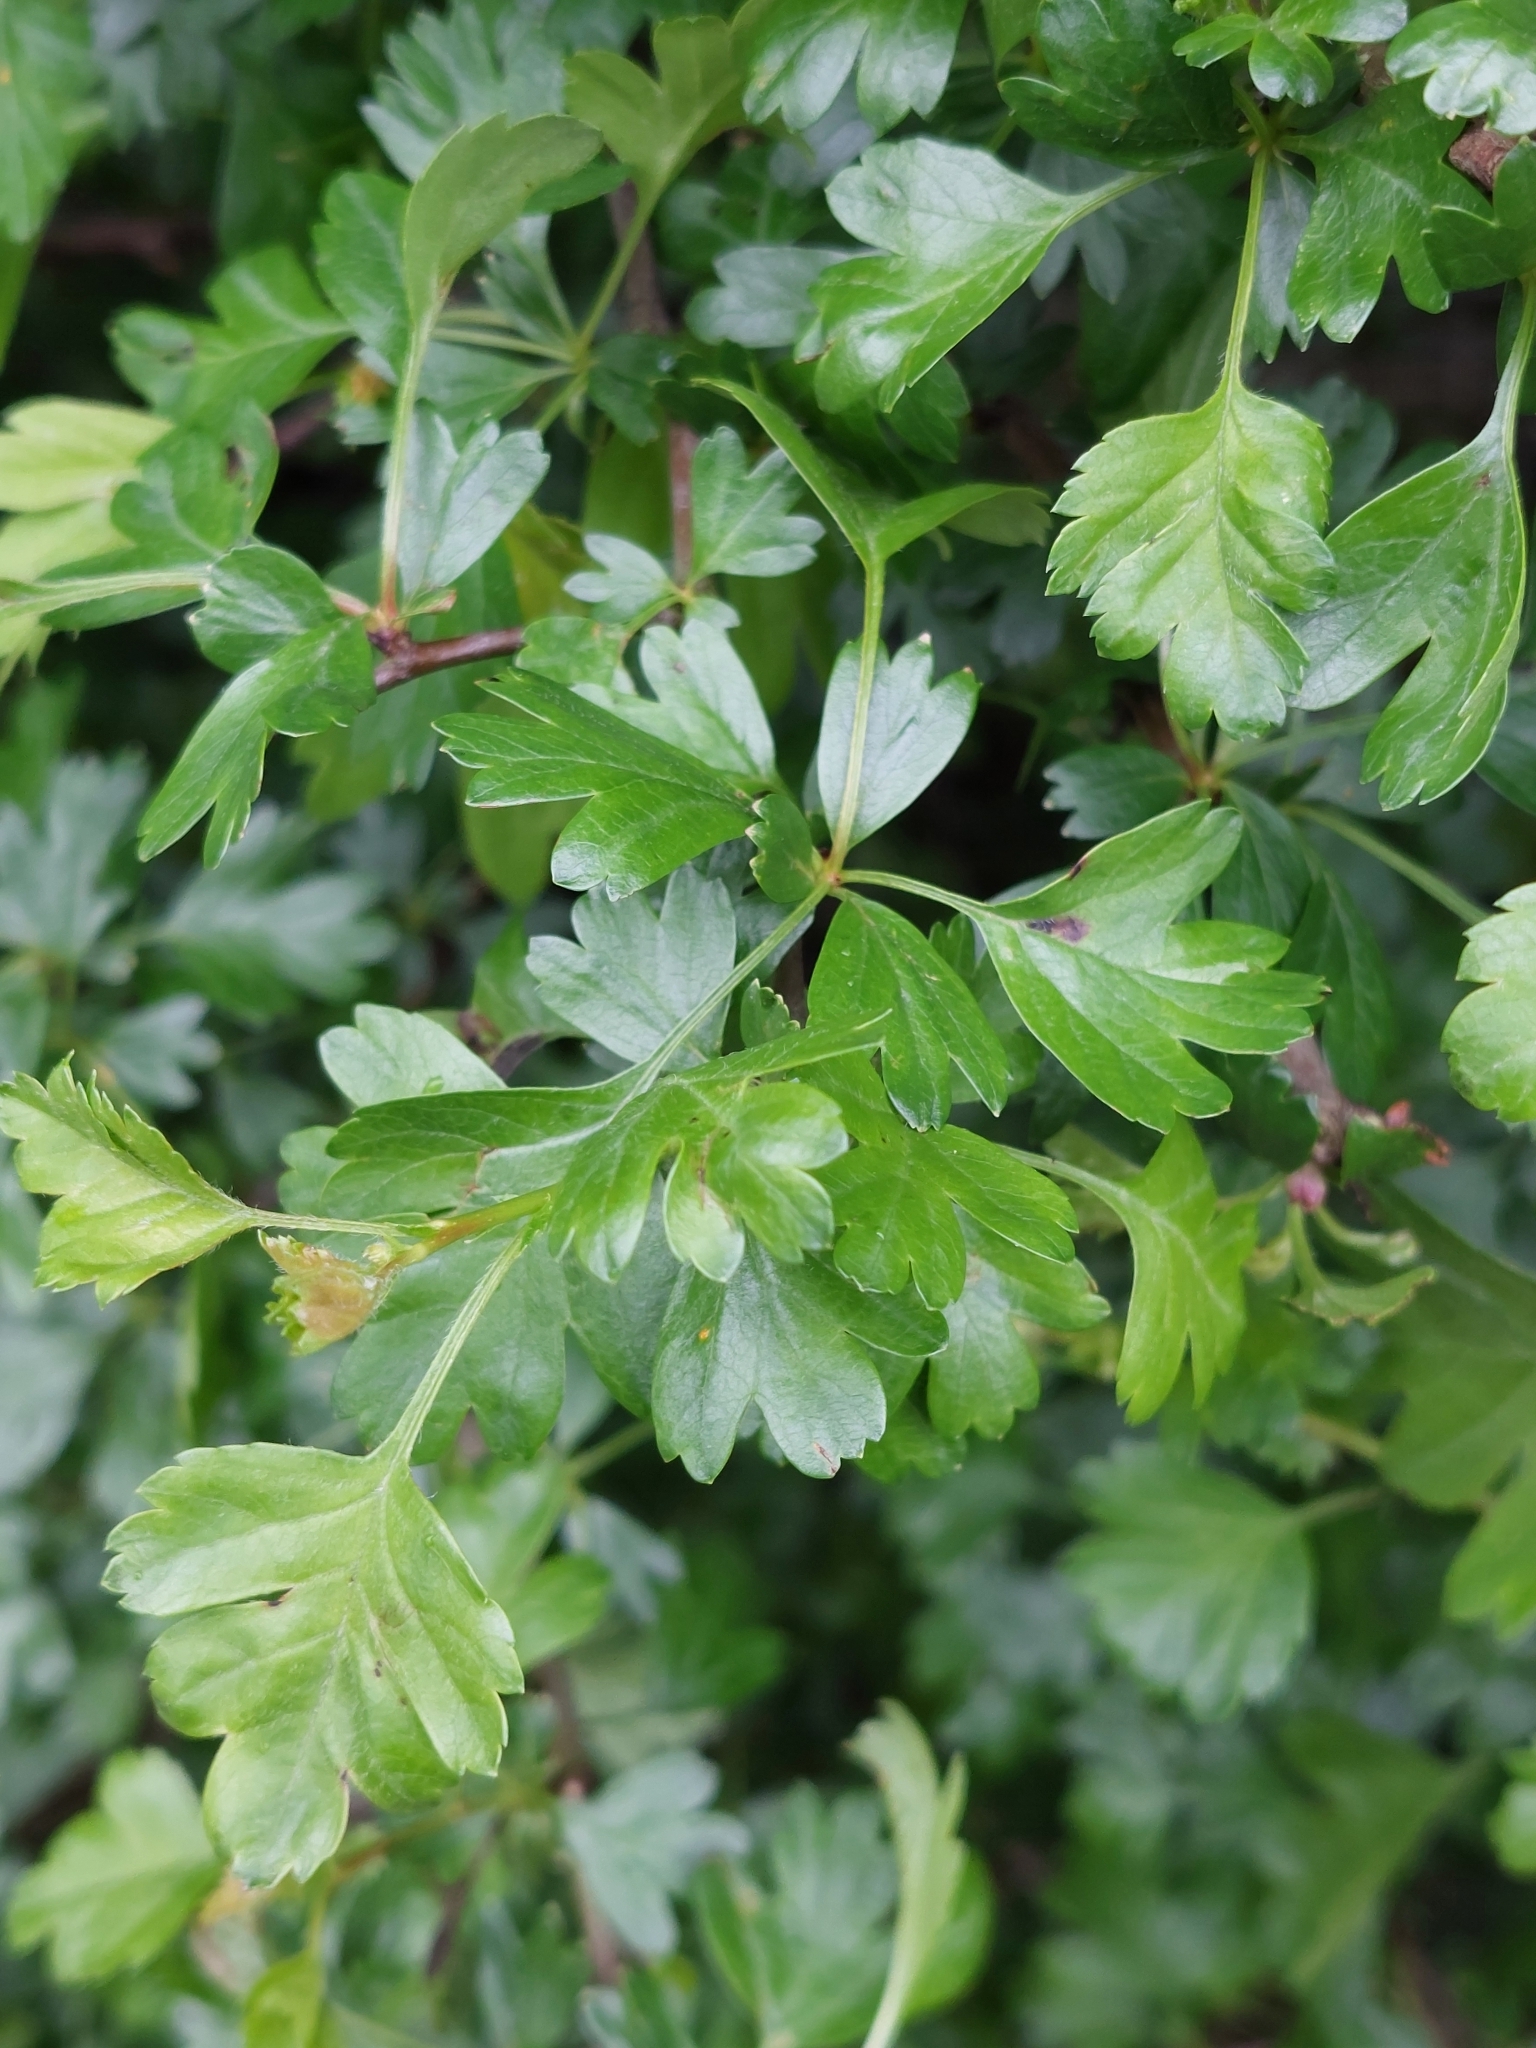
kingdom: Plantae
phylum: Tracheophyta
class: Magnoliopsida
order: Rosales
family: Rosaceae
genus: Crataegus
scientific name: Crataegus monogyna
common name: Hawthorn
